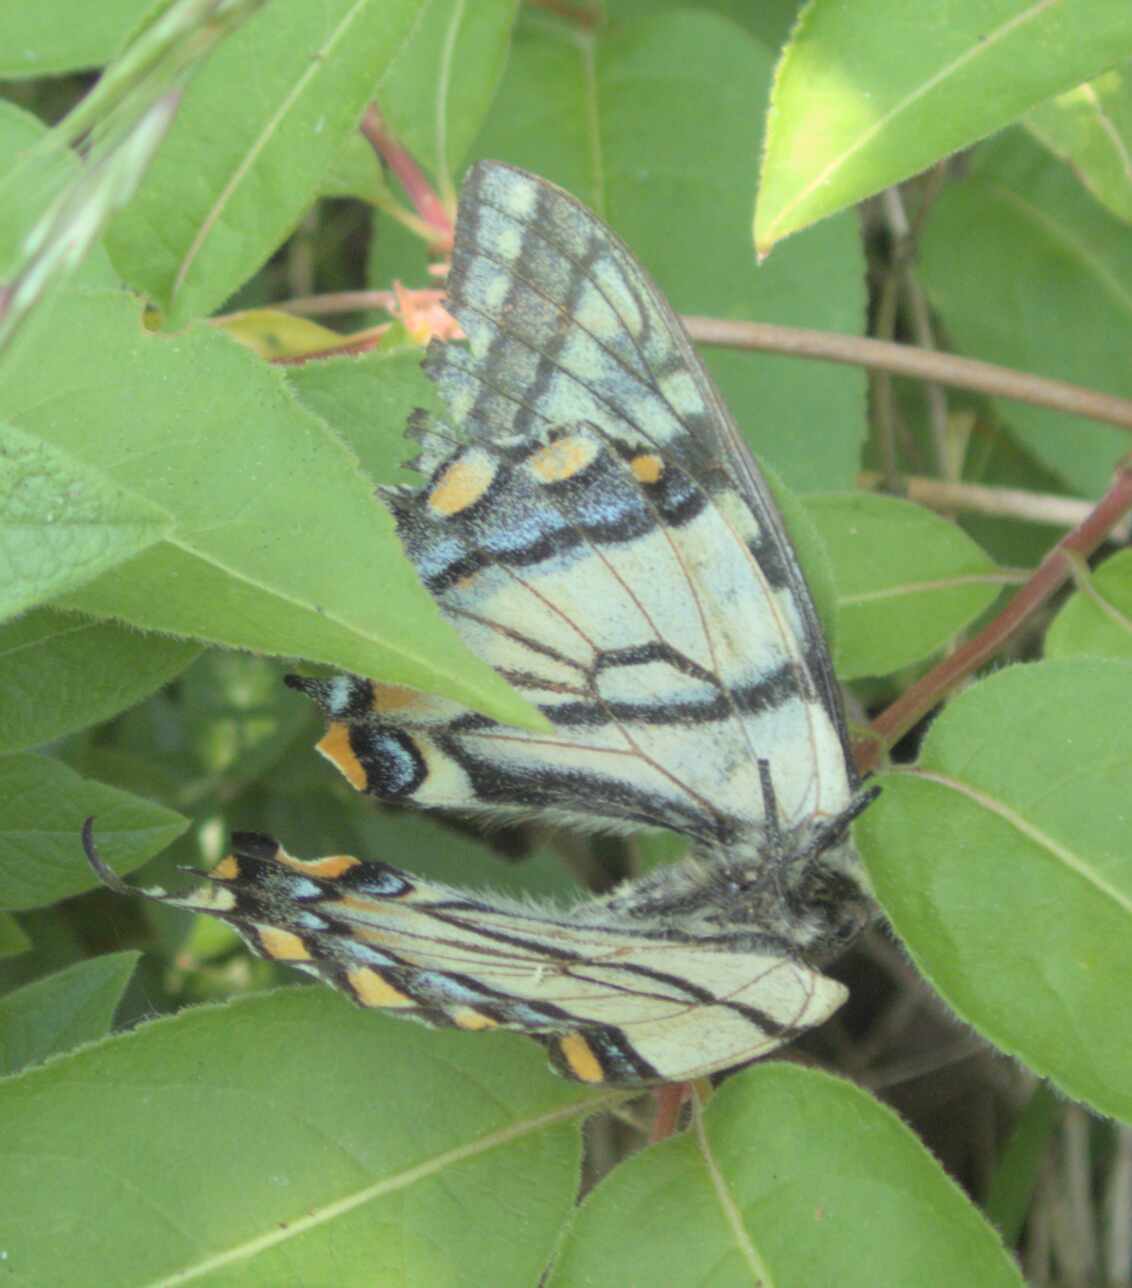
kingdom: Animalia
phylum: Arthropoda
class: Insecta
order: Lepidoptera
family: Papilionidae
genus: Papilio
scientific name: Papilio canadensis
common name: Canadian tiger swallowtail
